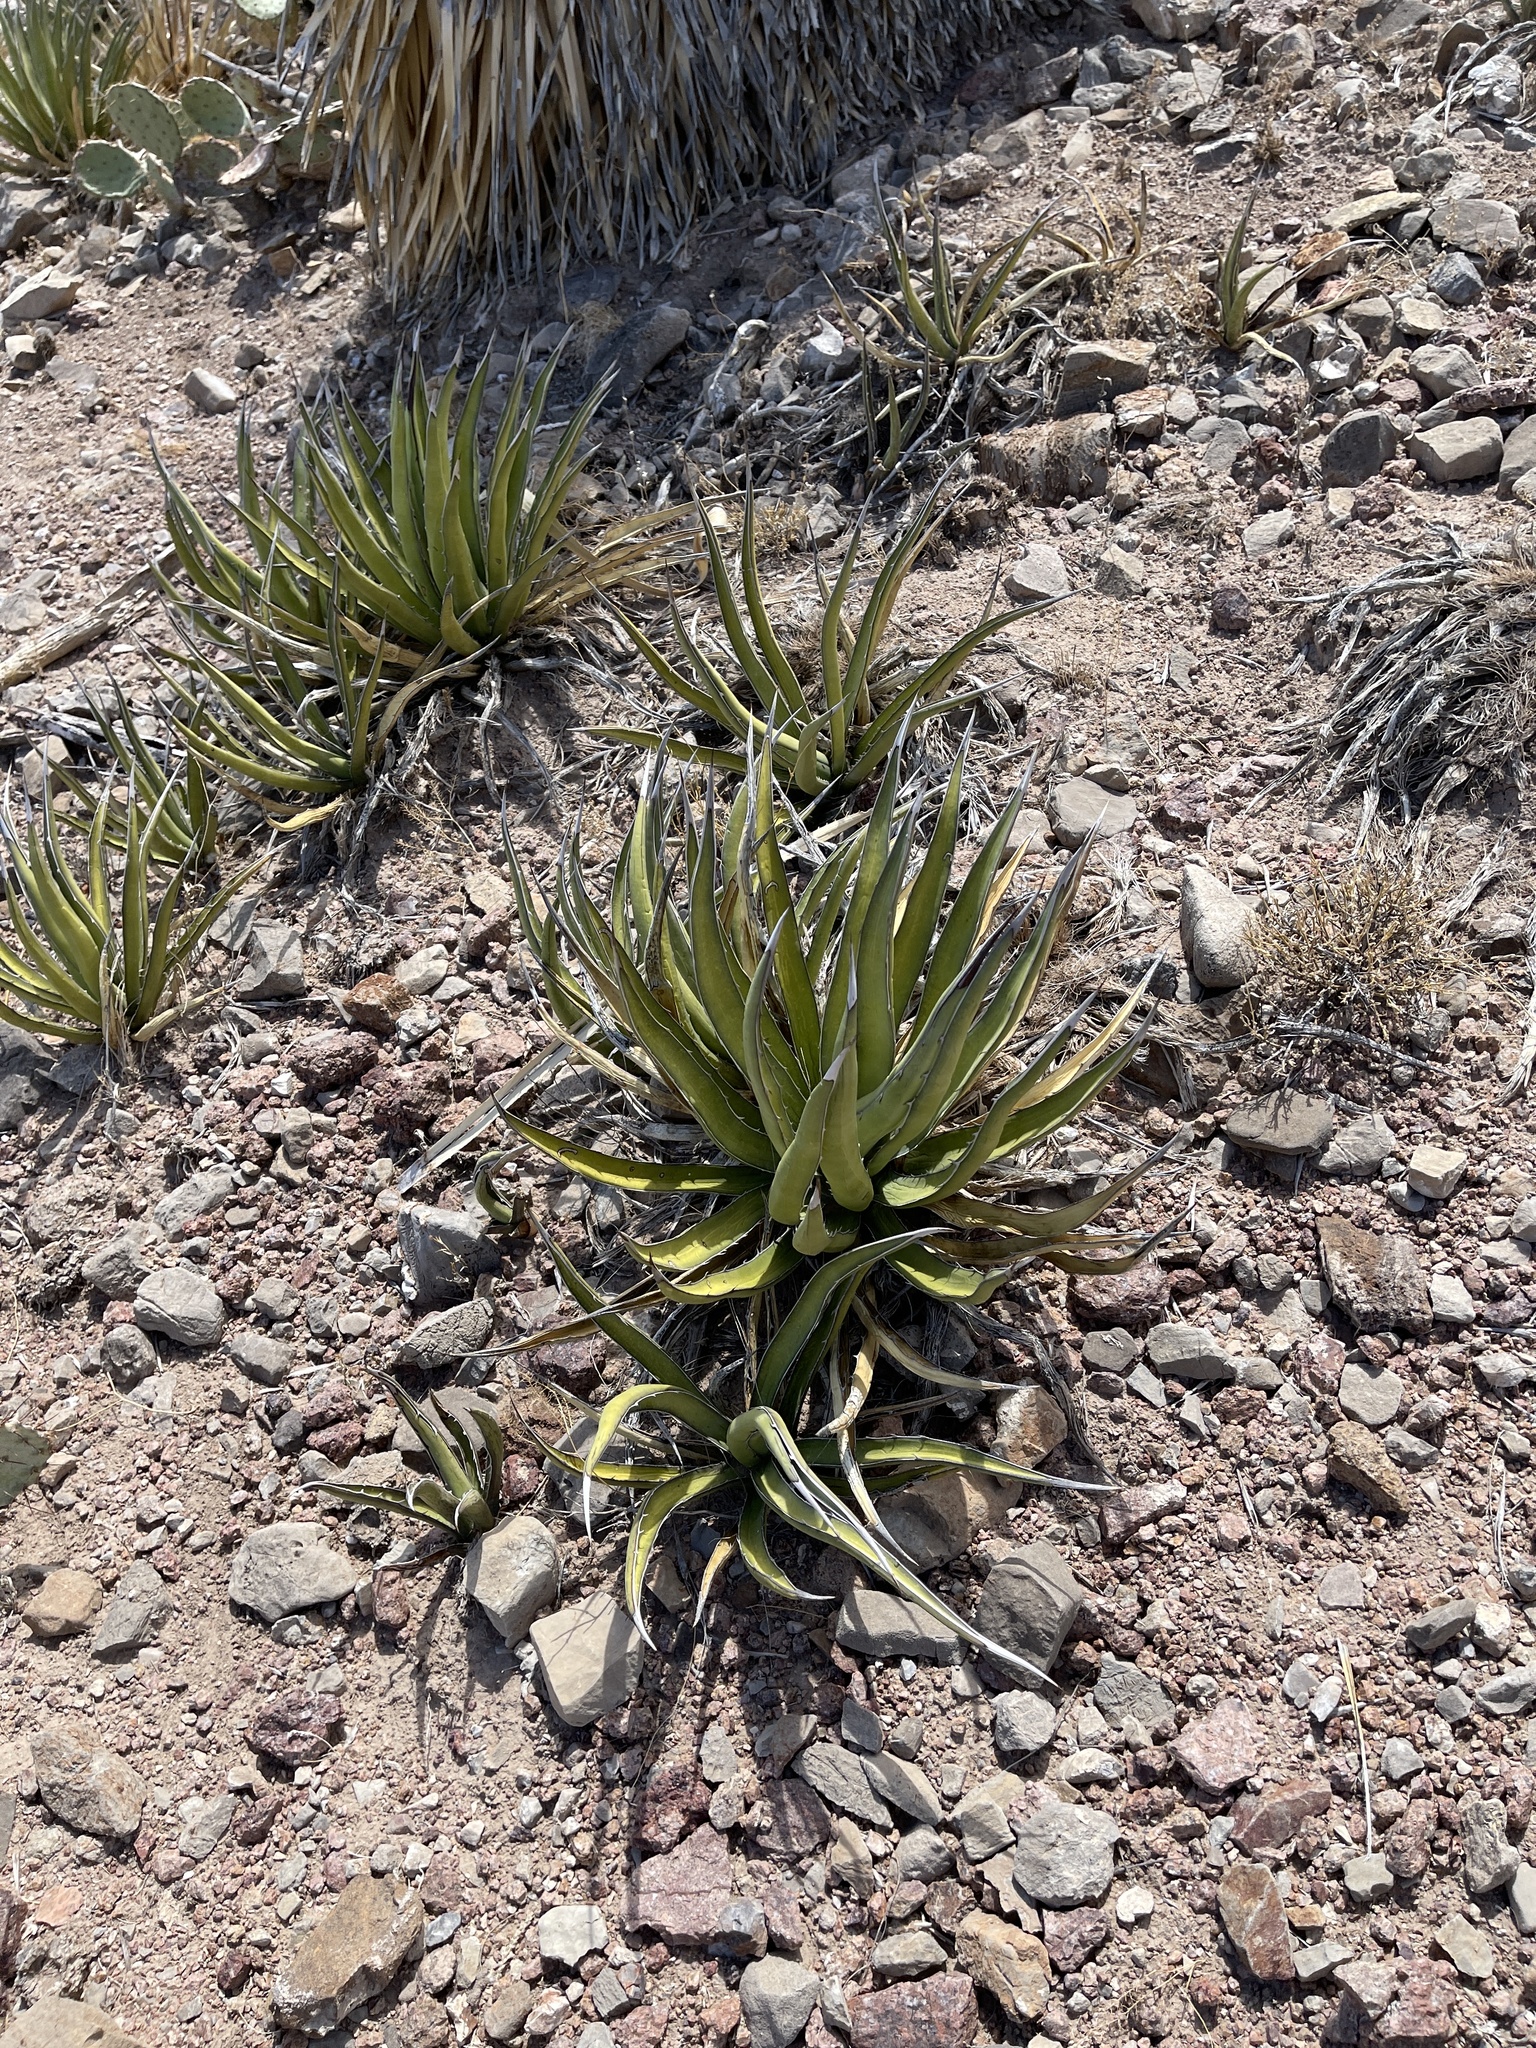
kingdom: Plantae
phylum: Tracheophyta
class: Liliopsida
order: Asparagales
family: Asparagaceae
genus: Agave
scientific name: Agave lechuguilla
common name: Lecheguilla agave
